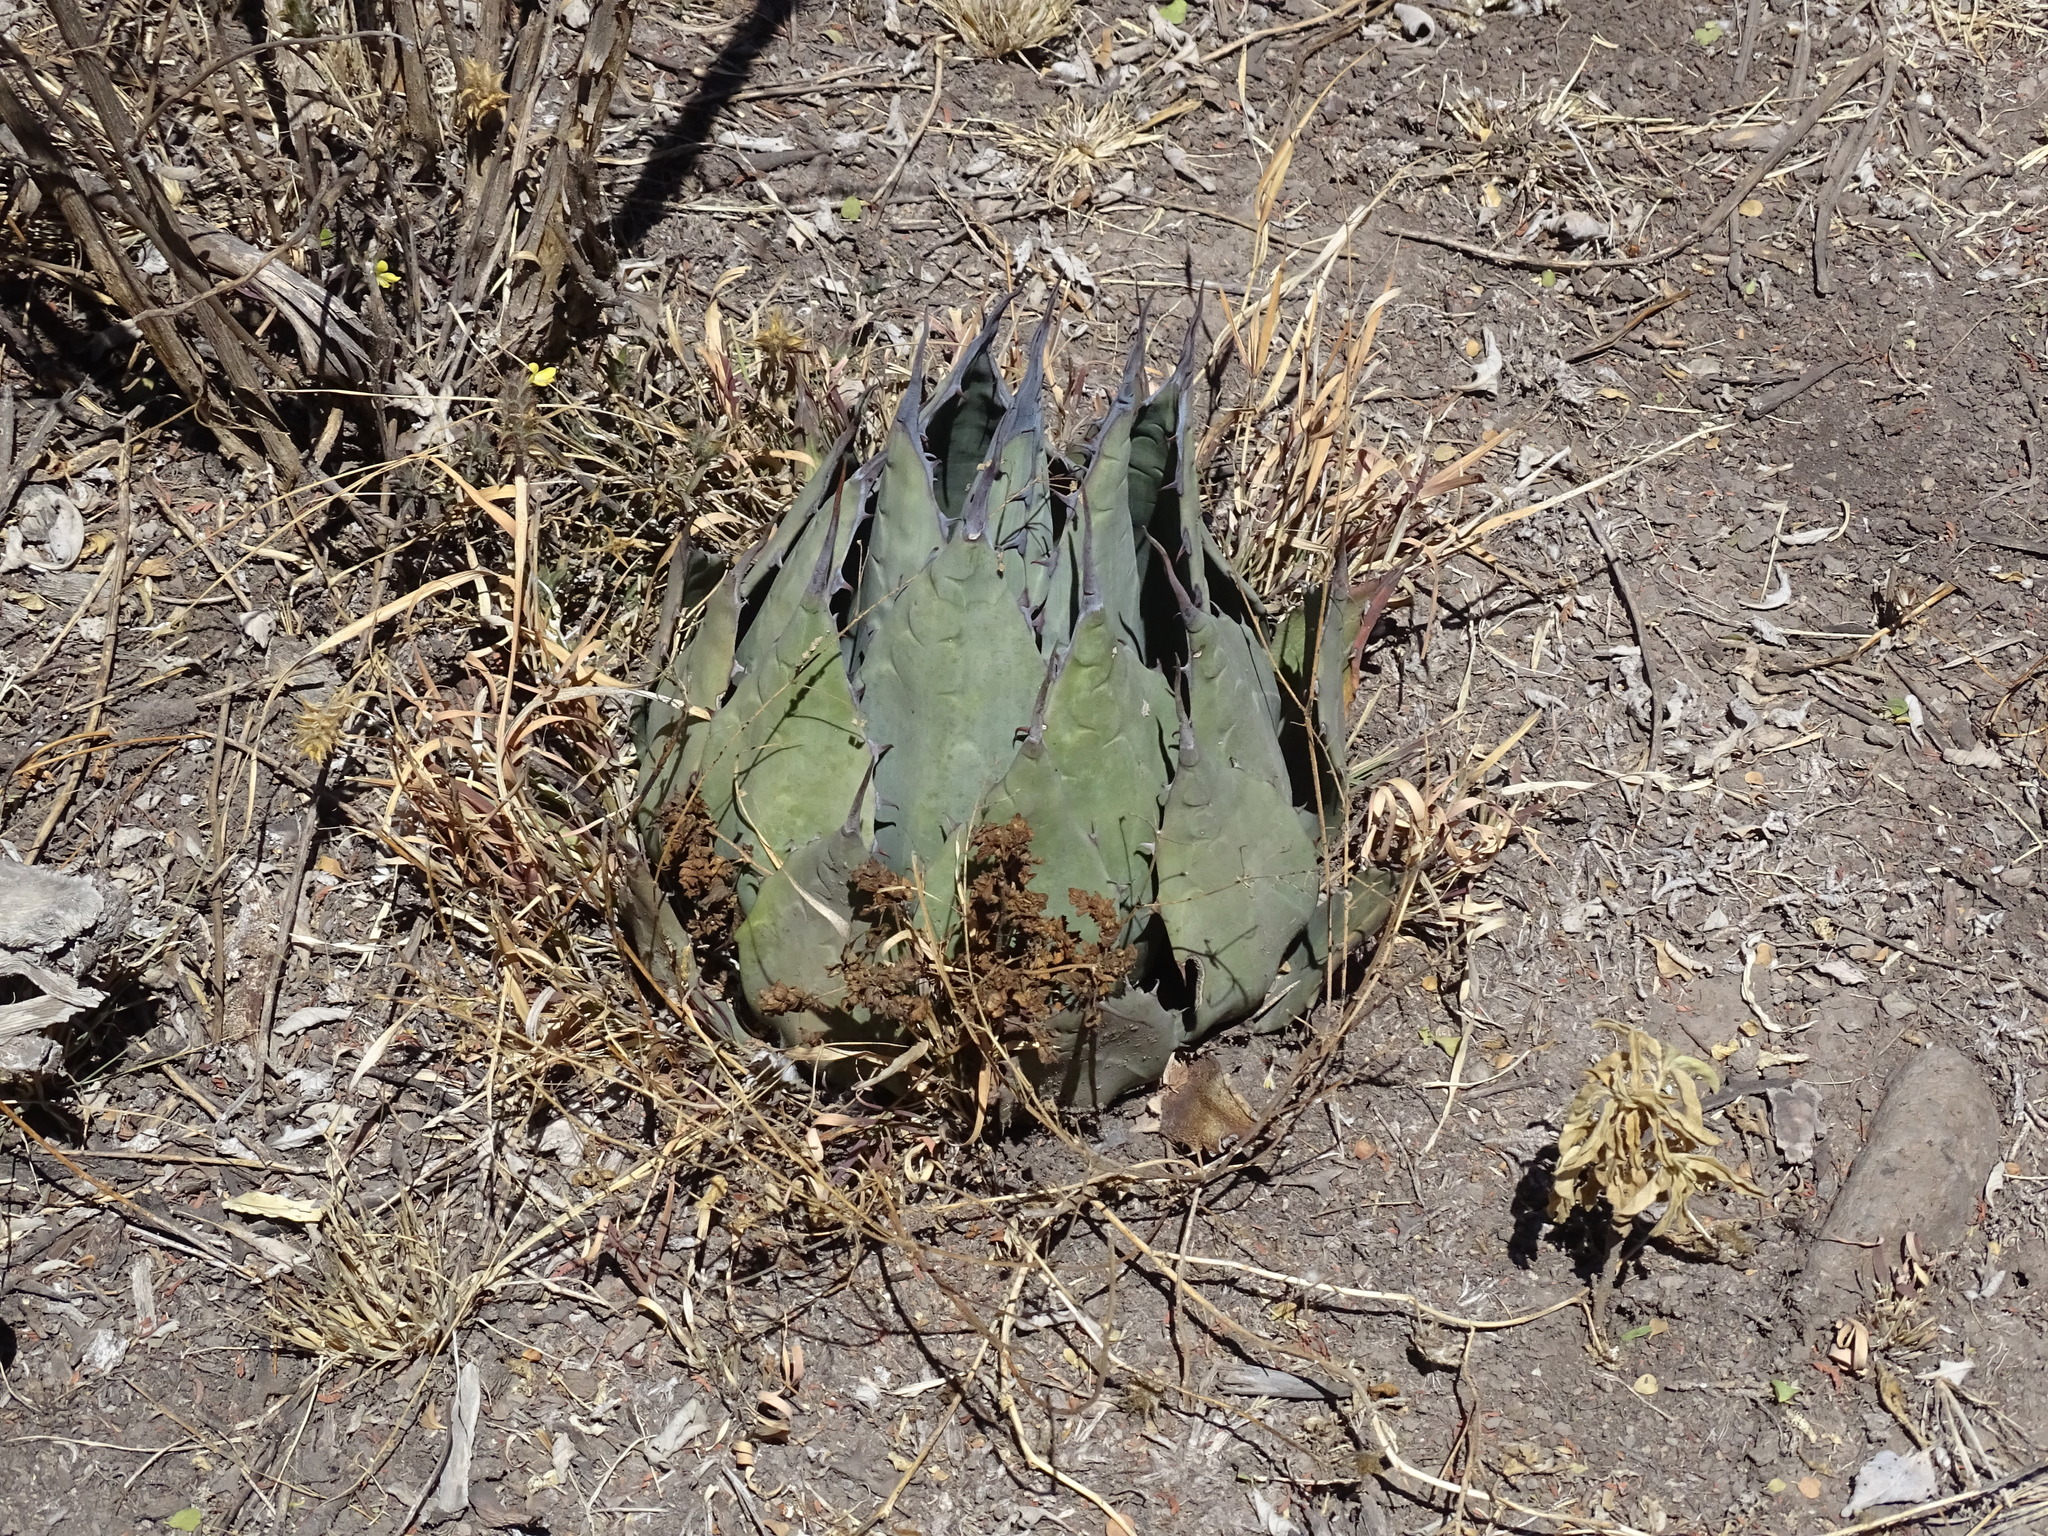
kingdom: Plantae
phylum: Tracheophyta
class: Liliopsida
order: Asparagales
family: Asparagaceae
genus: Agave
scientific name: Agave applanata
